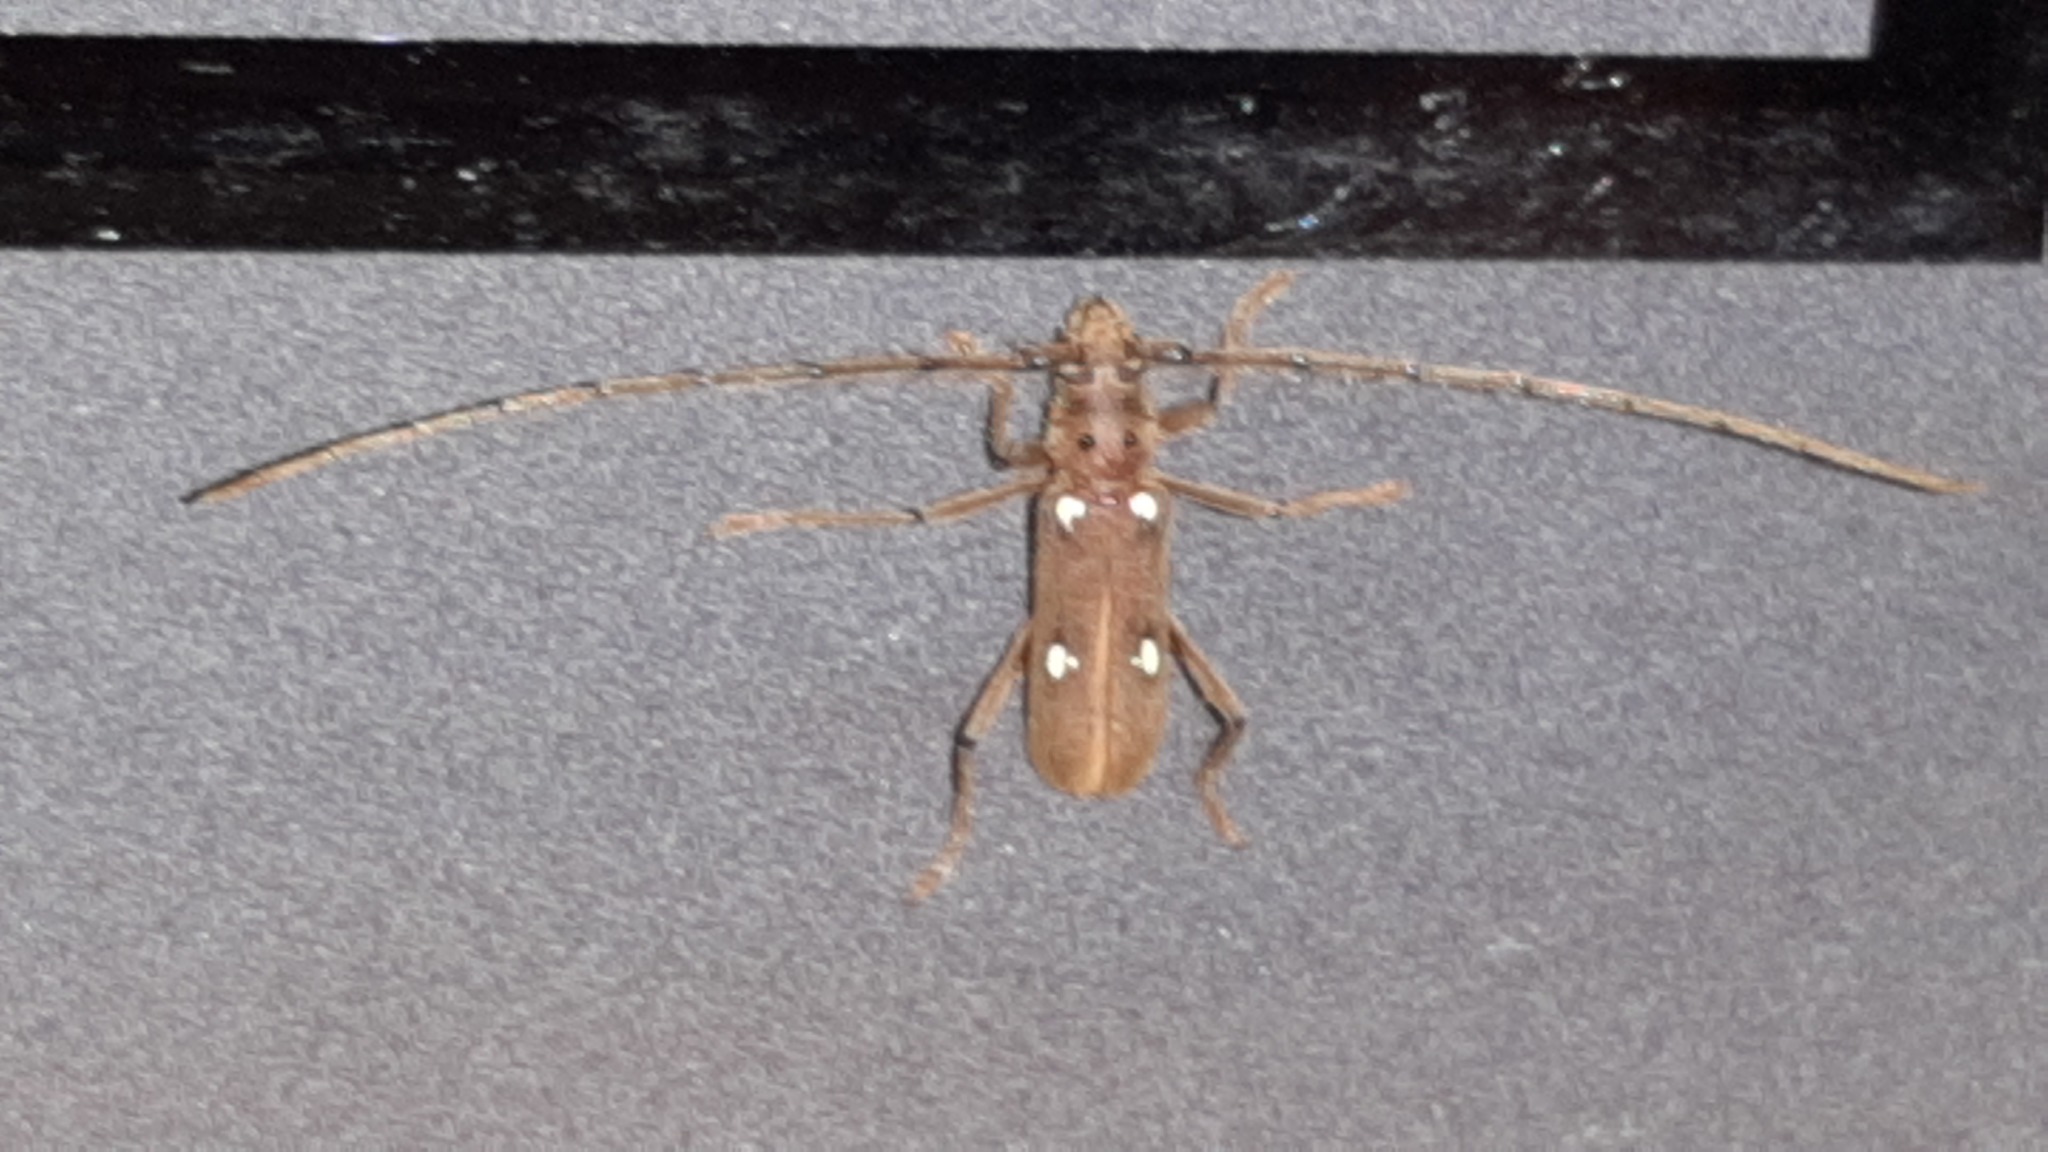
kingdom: Animalia
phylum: Arthropoda
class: Insecta
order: Coleoptera
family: Cerambycidae
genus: Eburia
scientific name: Eburia
